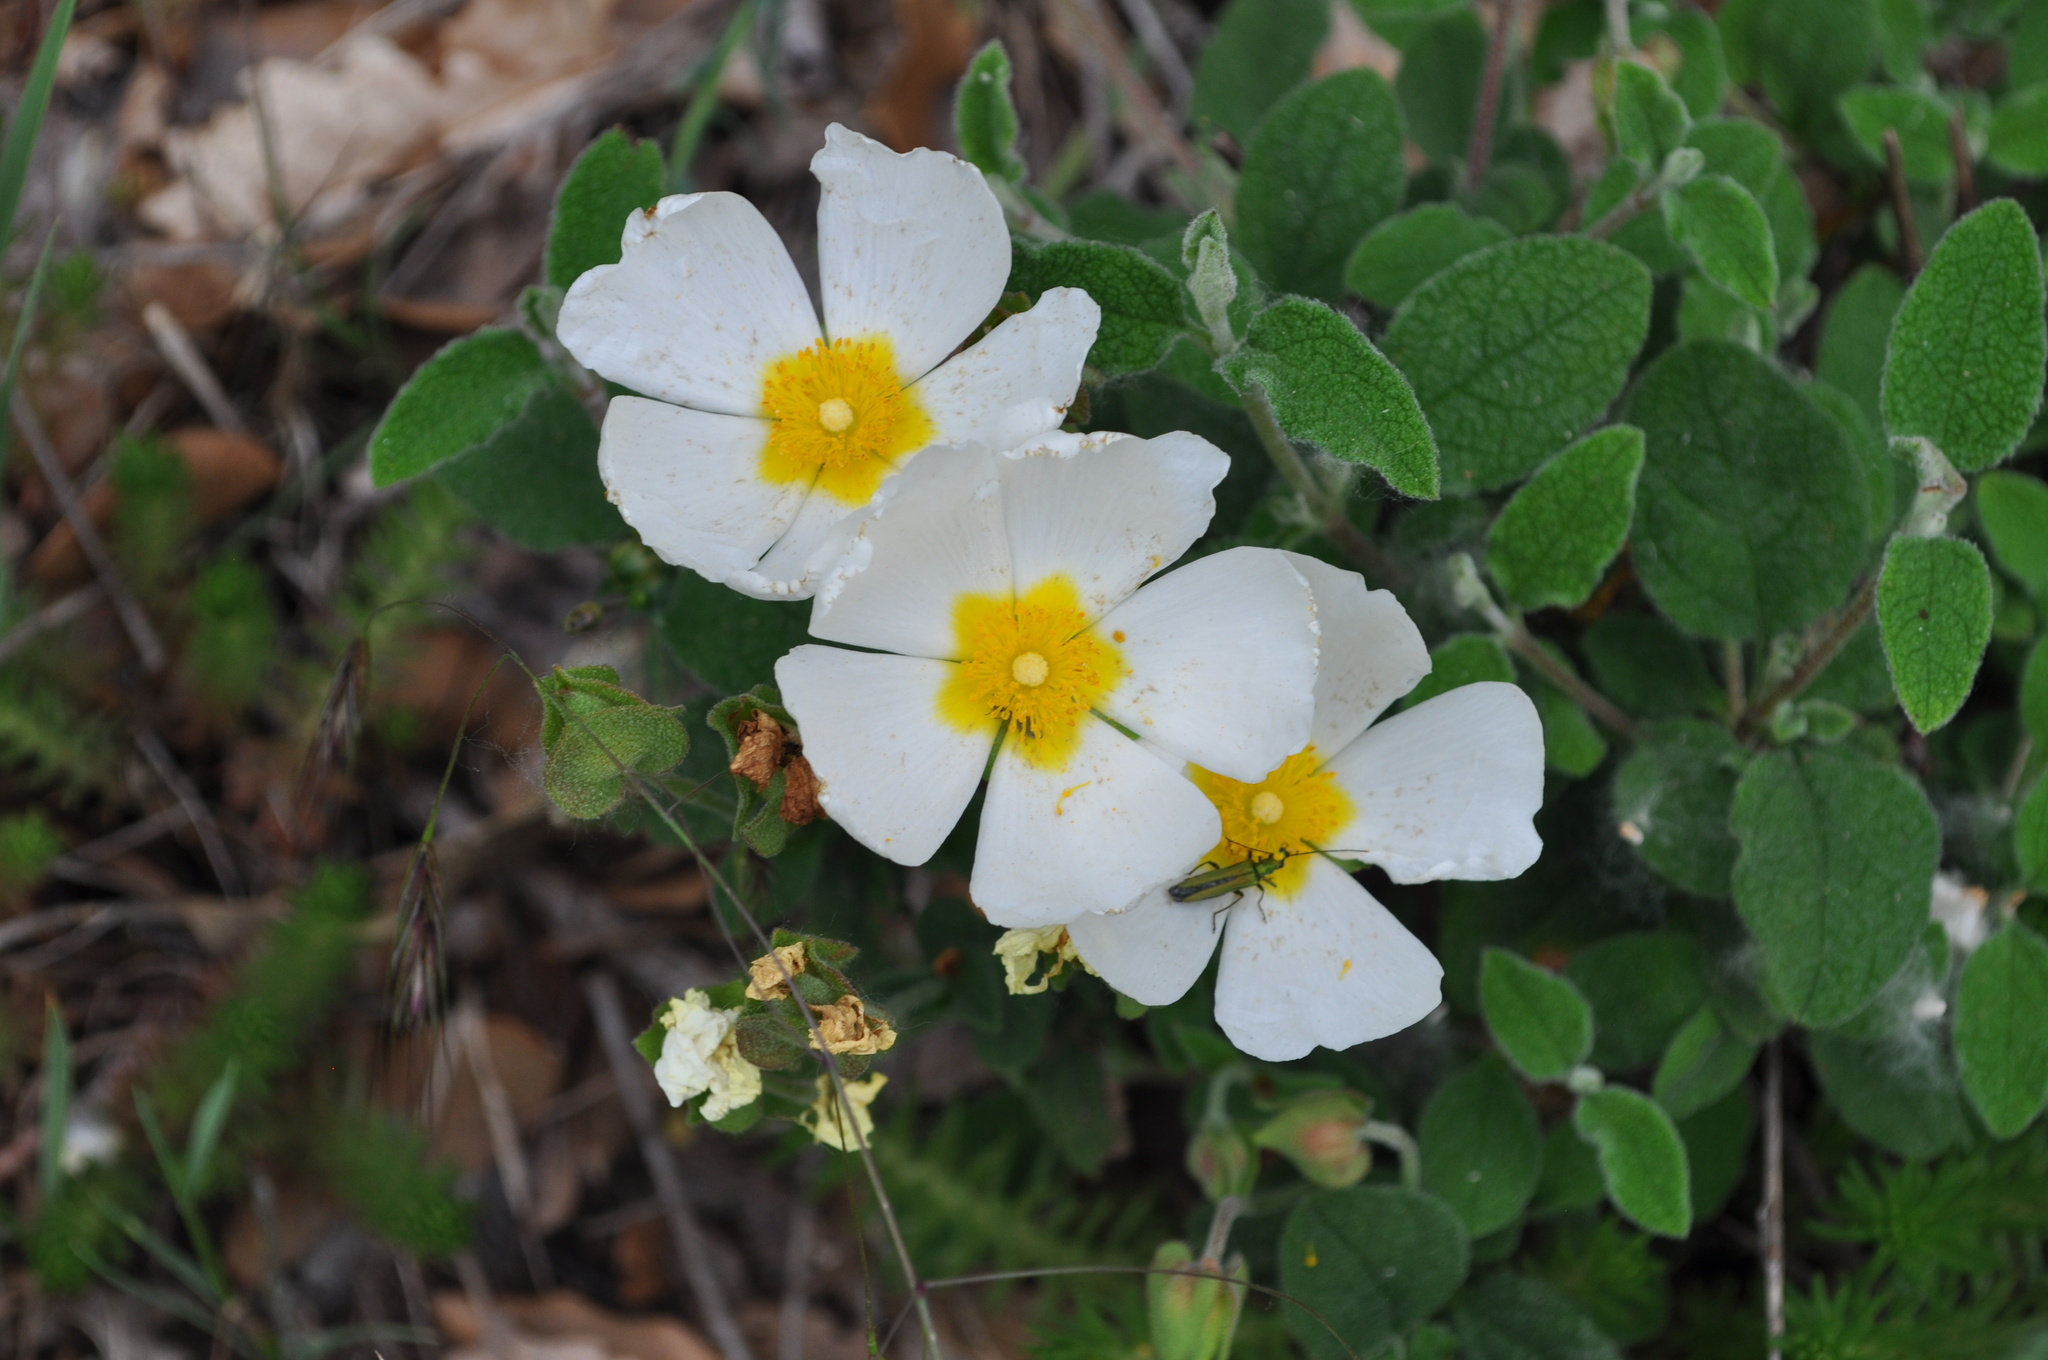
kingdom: Plantae
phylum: Tracheophyta
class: Magnoliopsida
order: Malvales
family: Cistaceae
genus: Cistus
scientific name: Cistus salviifolius
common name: Salvia cistus
